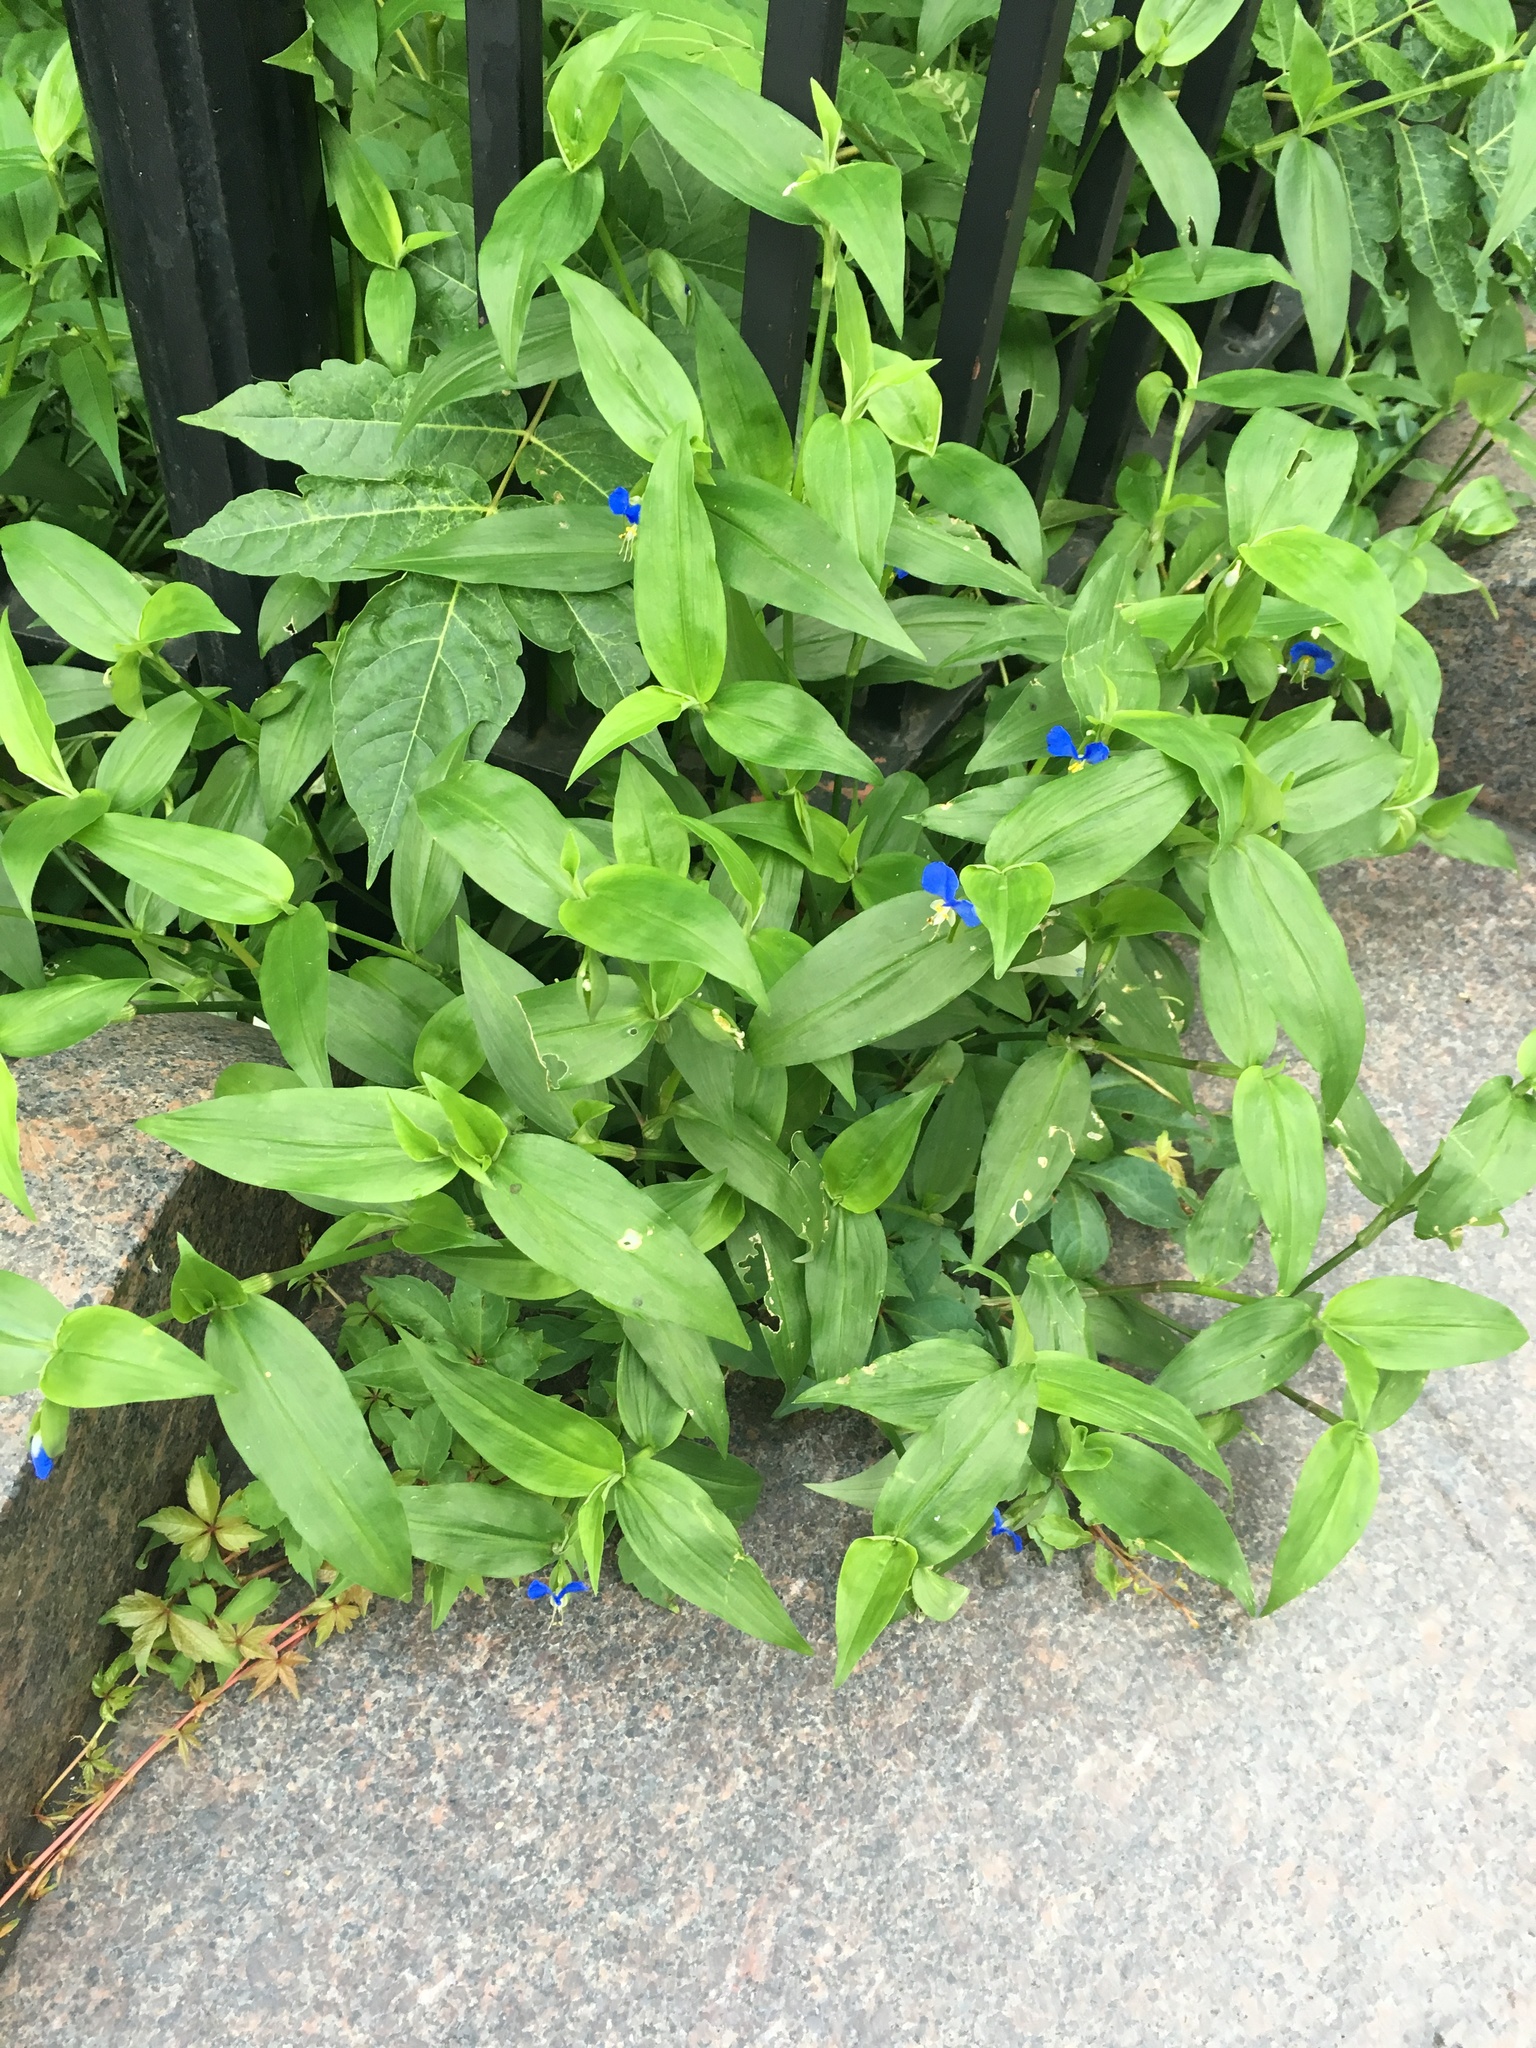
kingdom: Plantae
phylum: Tracheophyta
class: Liliopsida
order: Commelinales
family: Commelinaceae
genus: Commelina
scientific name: Commelina communis
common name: Asiatic dayflower
